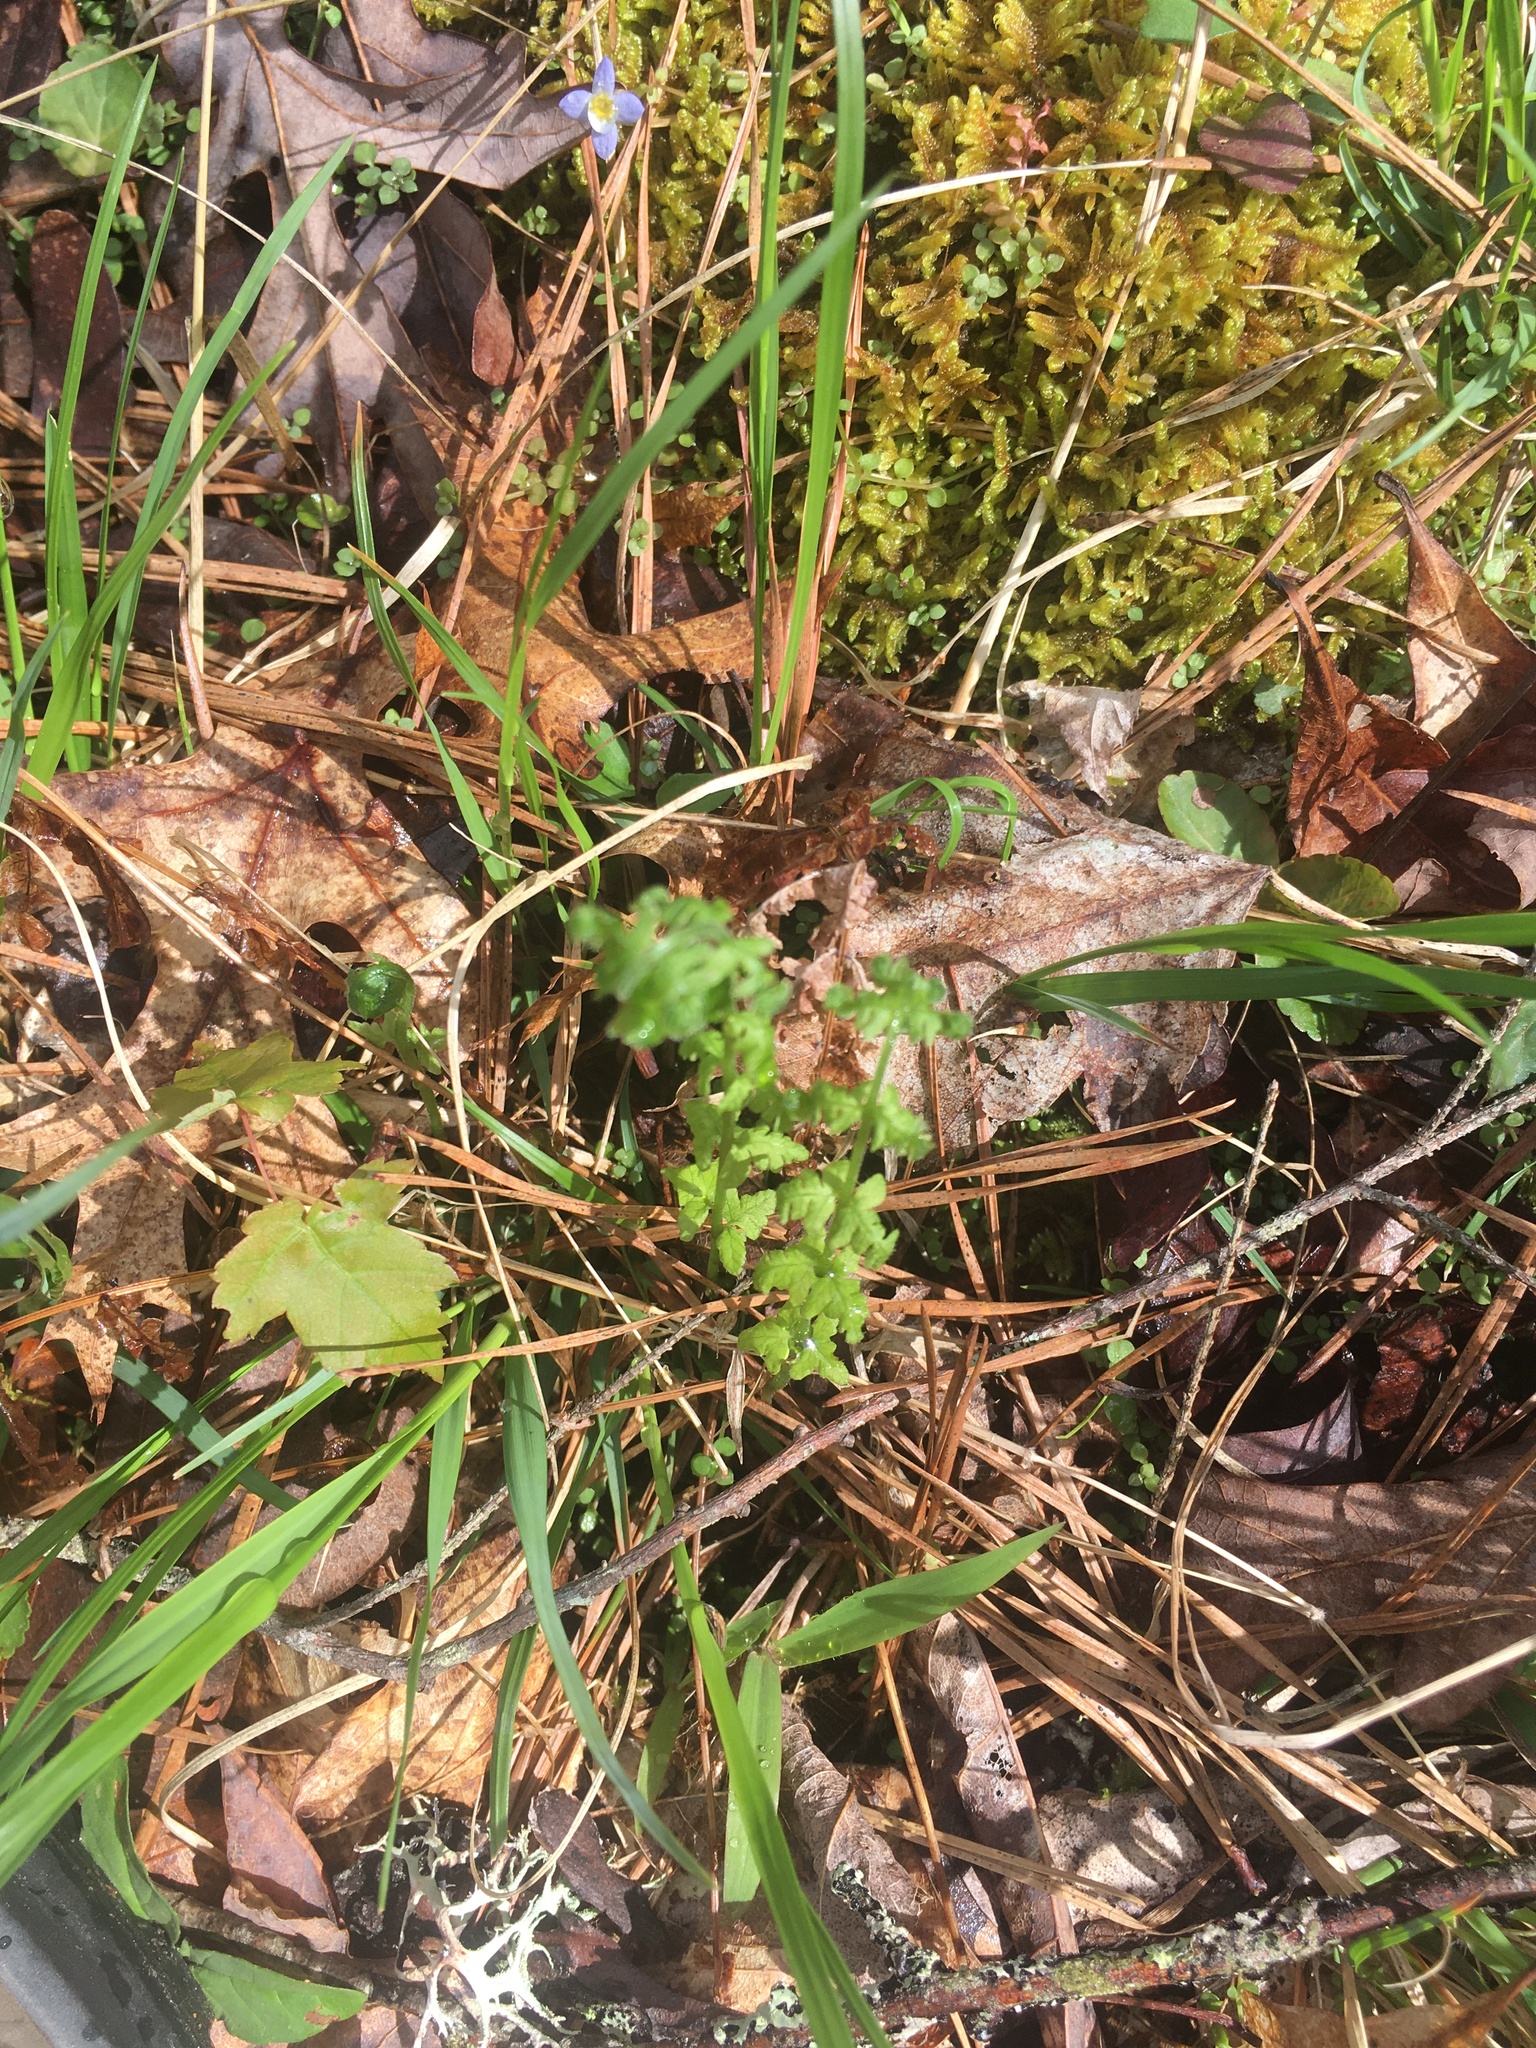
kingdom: Plantae
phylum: Tracheophyta
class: Polypodiopsida
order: Polypodiales
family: Thelypteridaceae
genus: Amauropelta
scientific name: Amauropelta noveboracensis
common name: New york fern
